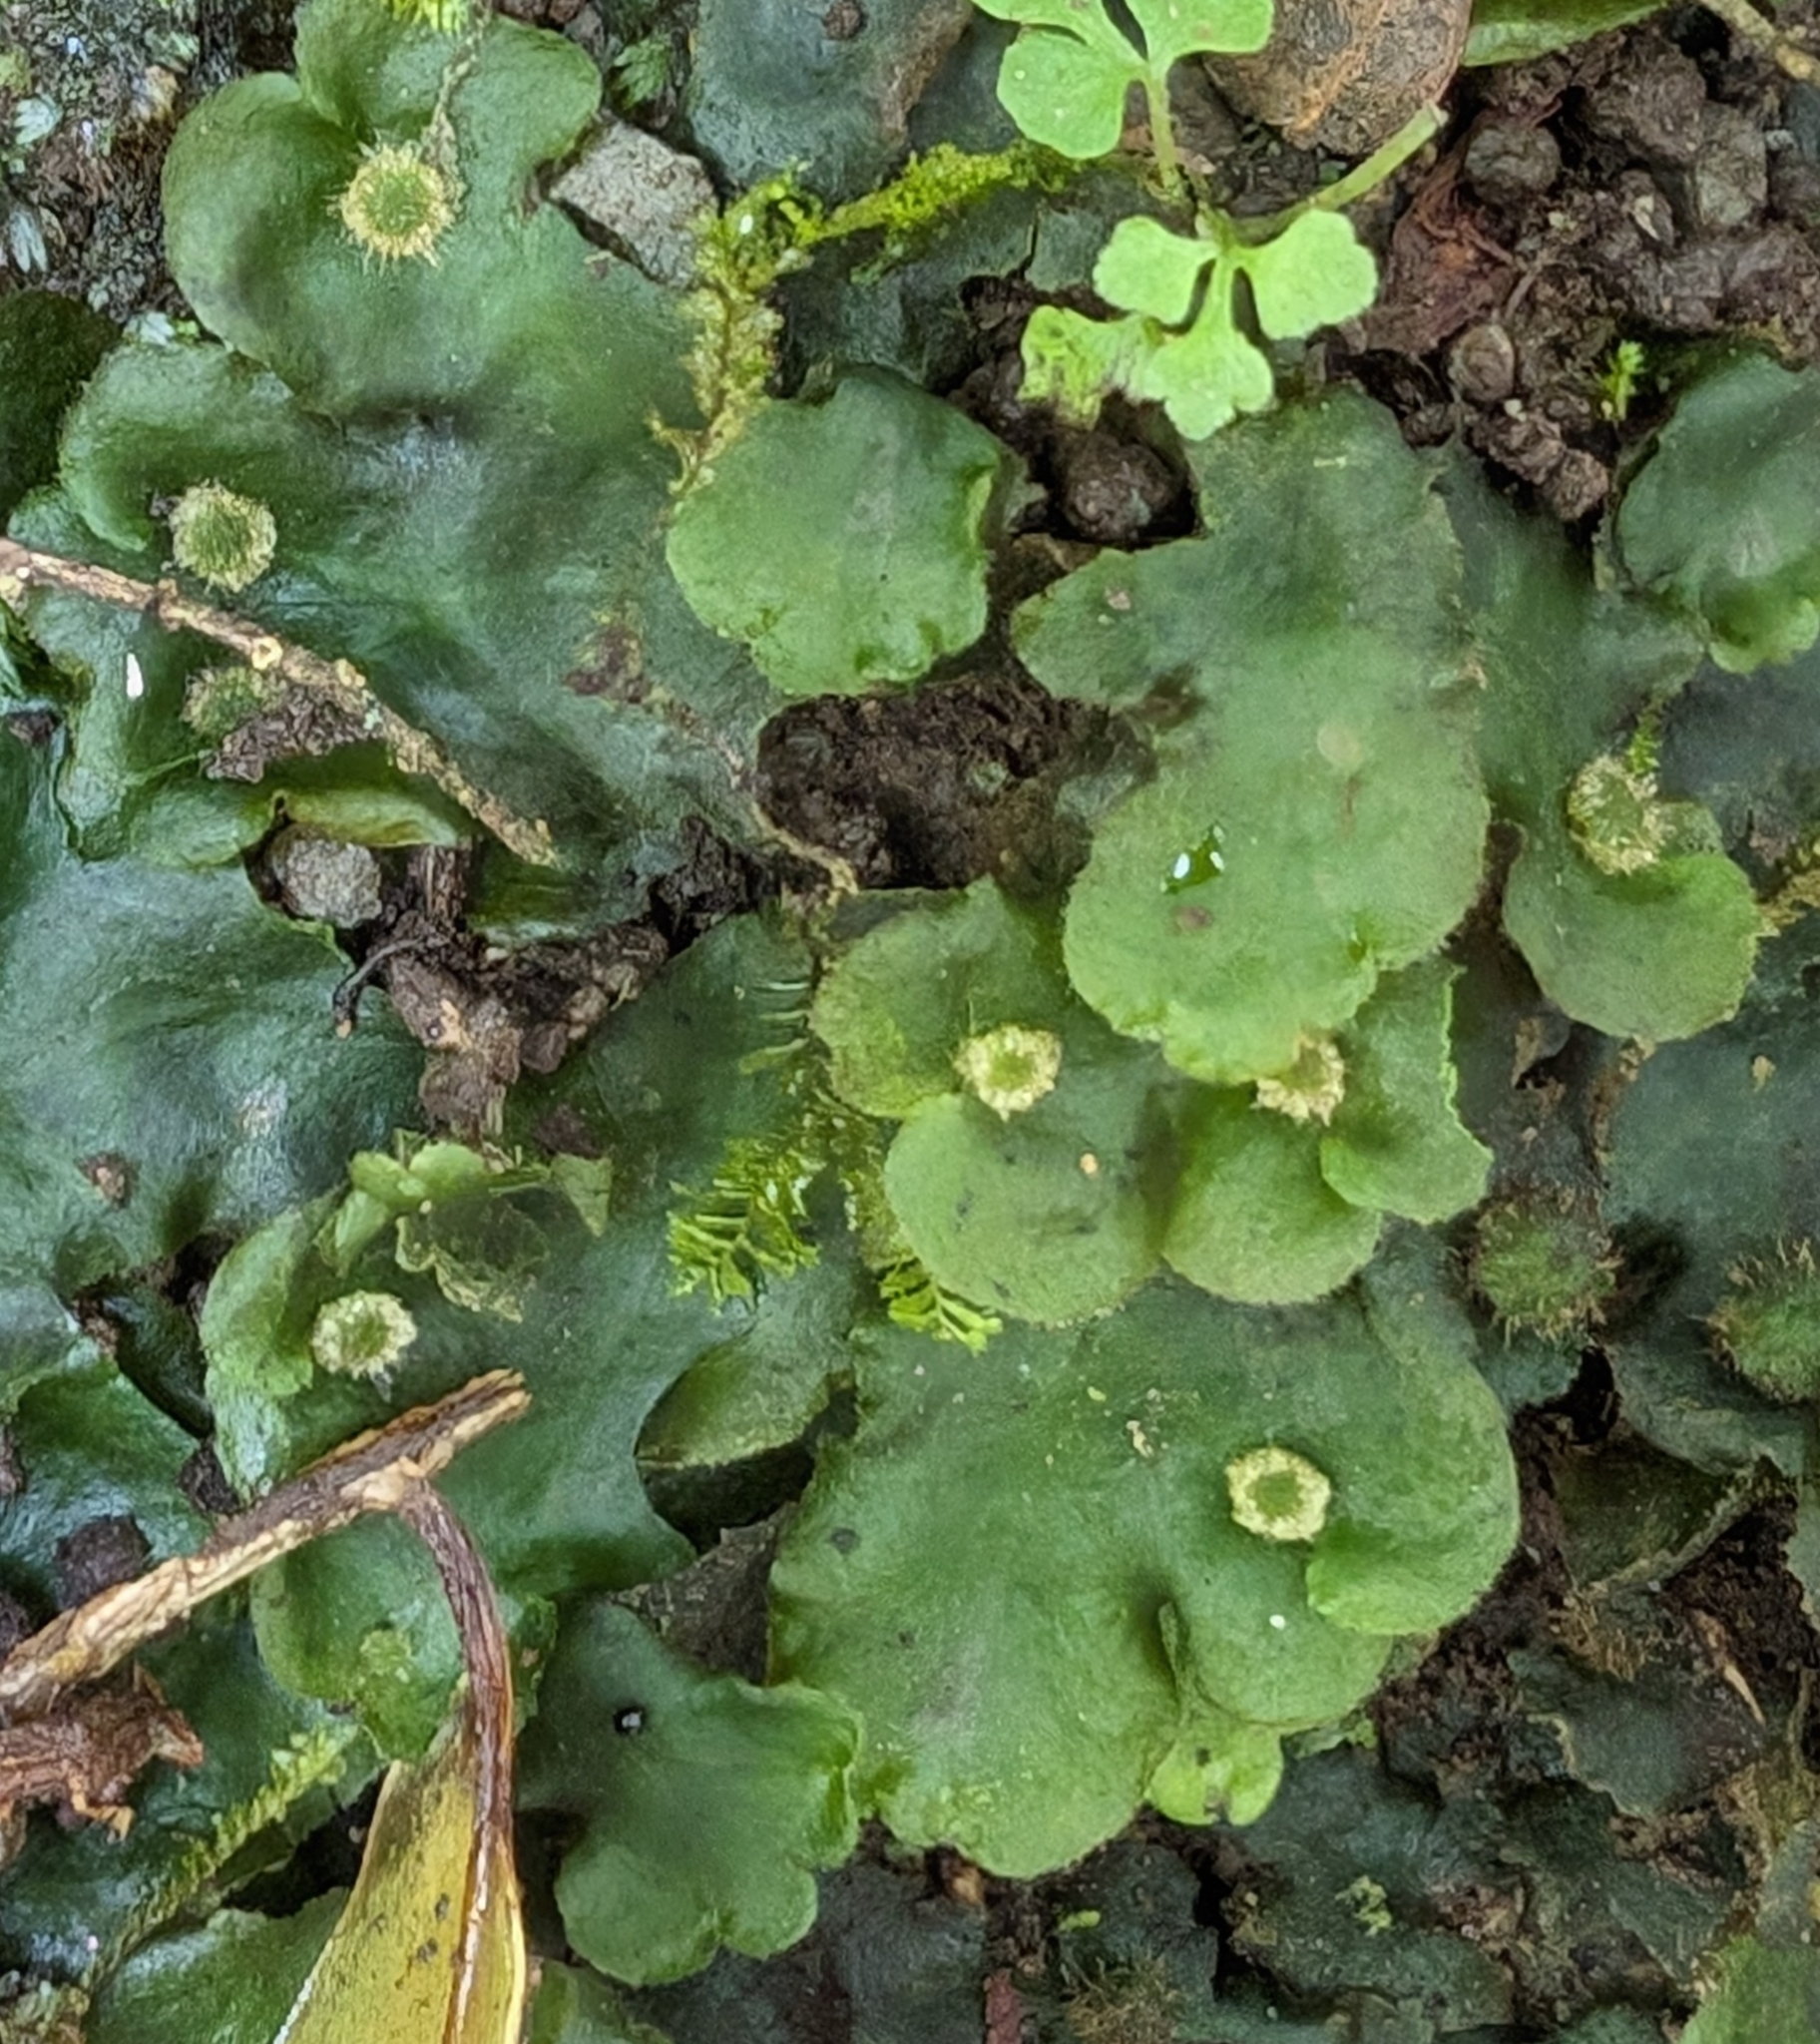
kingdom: Plantae
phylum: Marchantiophyta
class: Marchantiopsida
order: Marchantiales
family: Dumortieraceae
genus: Dumortiera
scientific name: Dumortiera hirsuta
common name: Dumortier's liverwort
